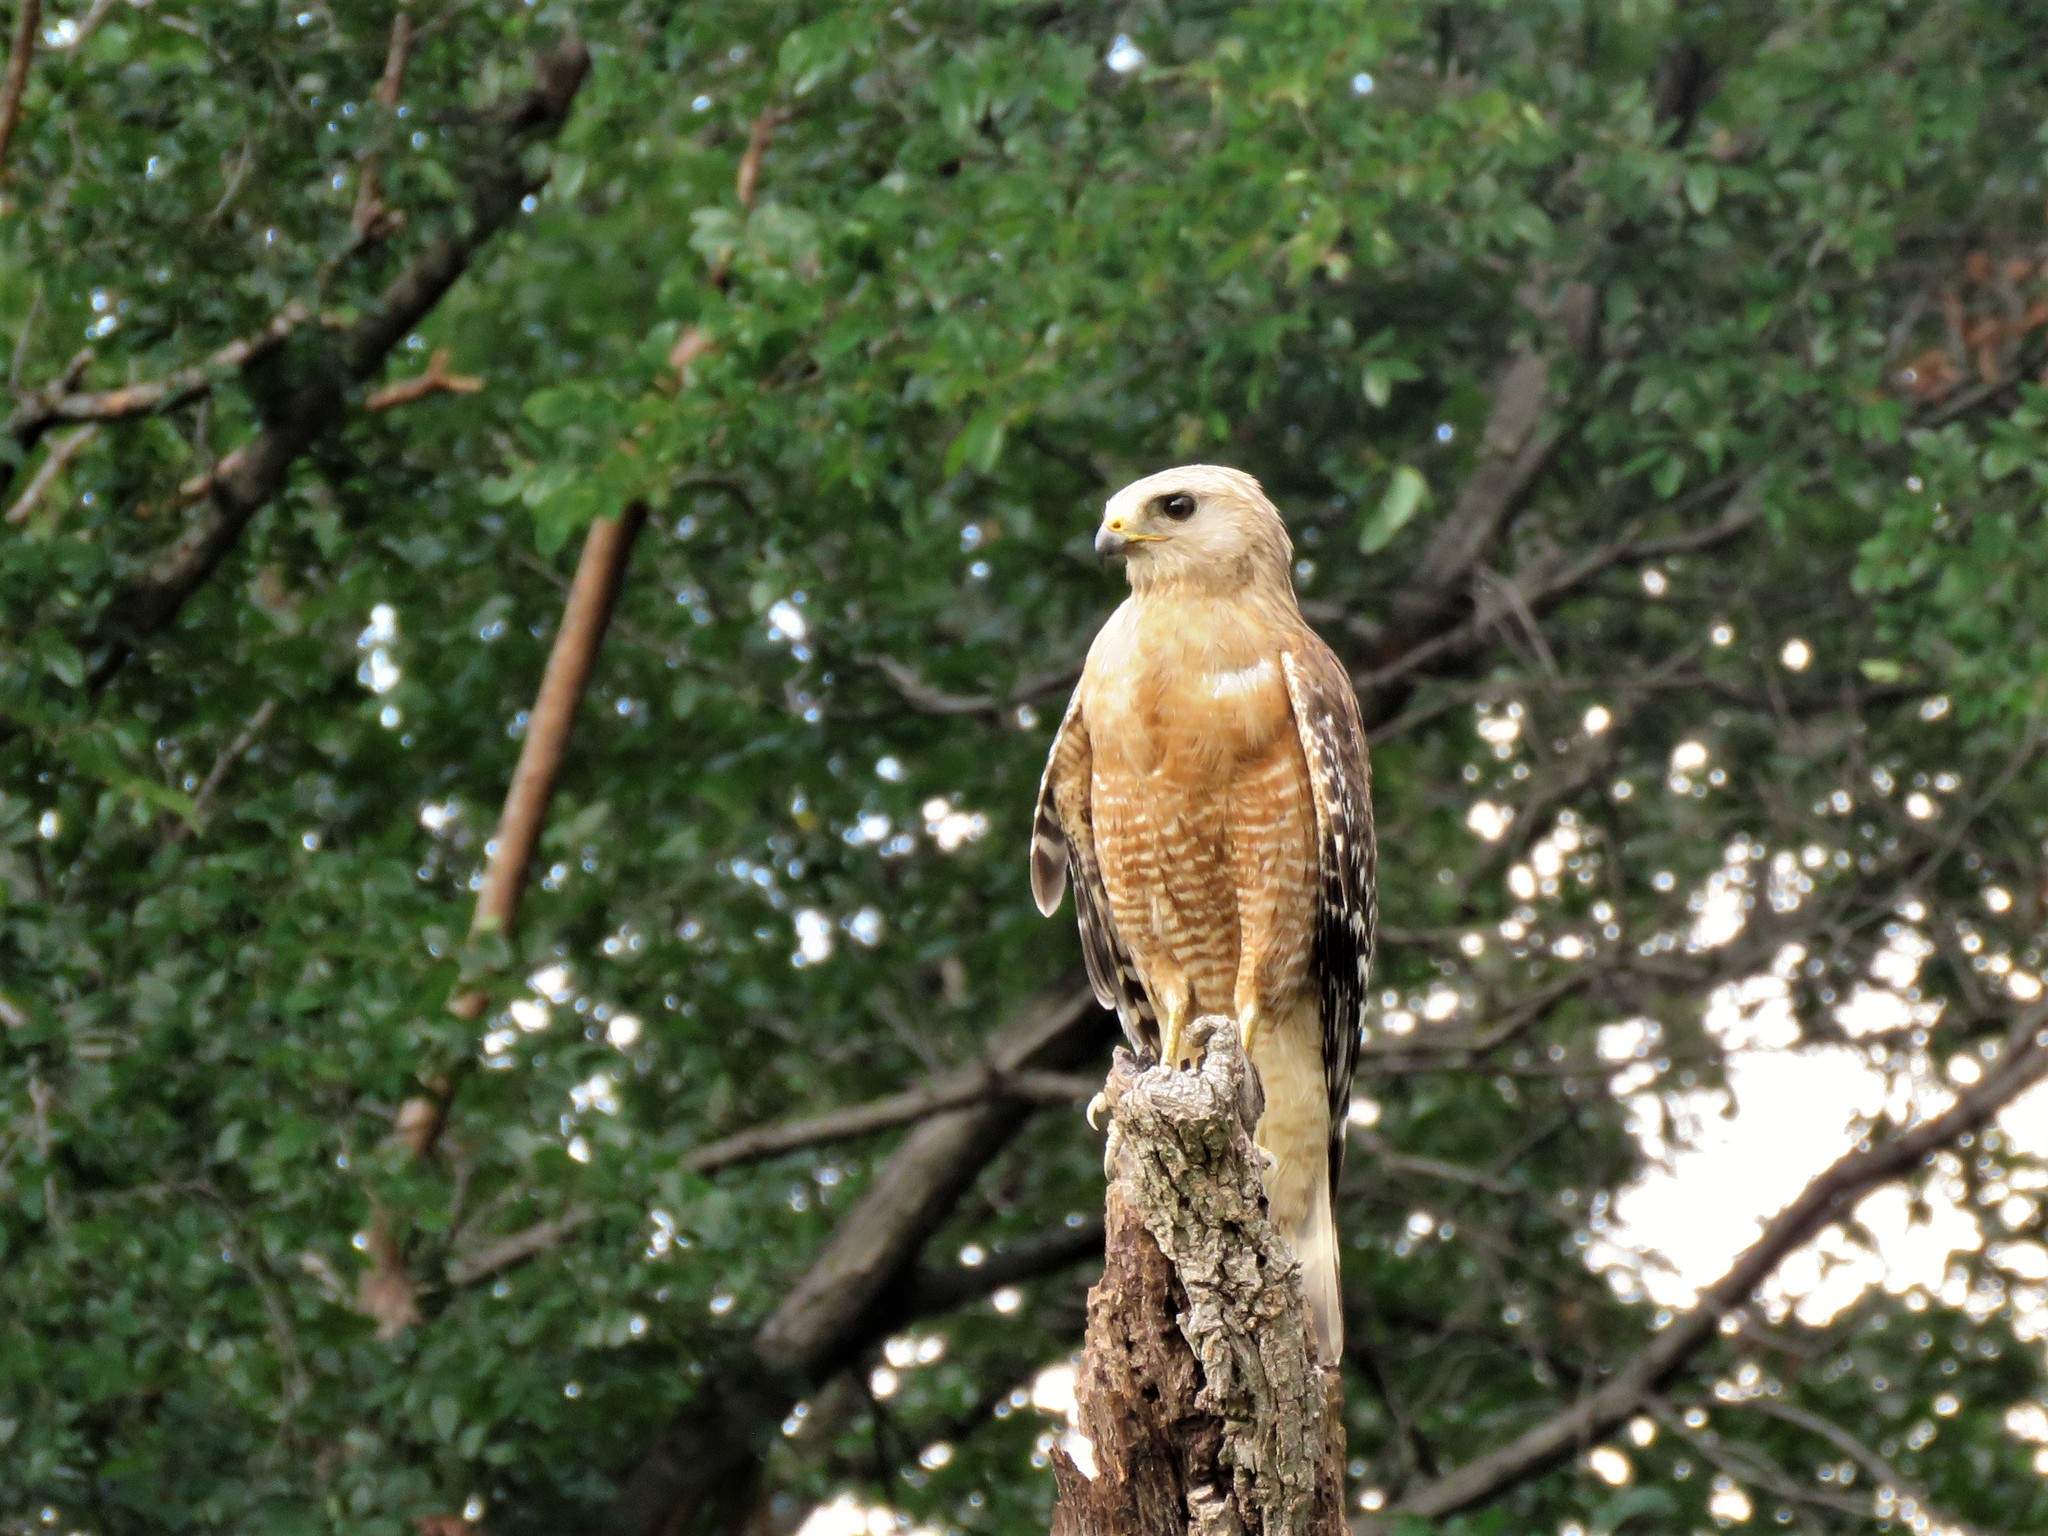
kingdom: Animalia
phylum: Chordata
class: Aves
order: Accipitriformes
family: Accipitridae
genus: Buteo
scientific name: Buteo lineatus
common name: Red-shouldered hawk
